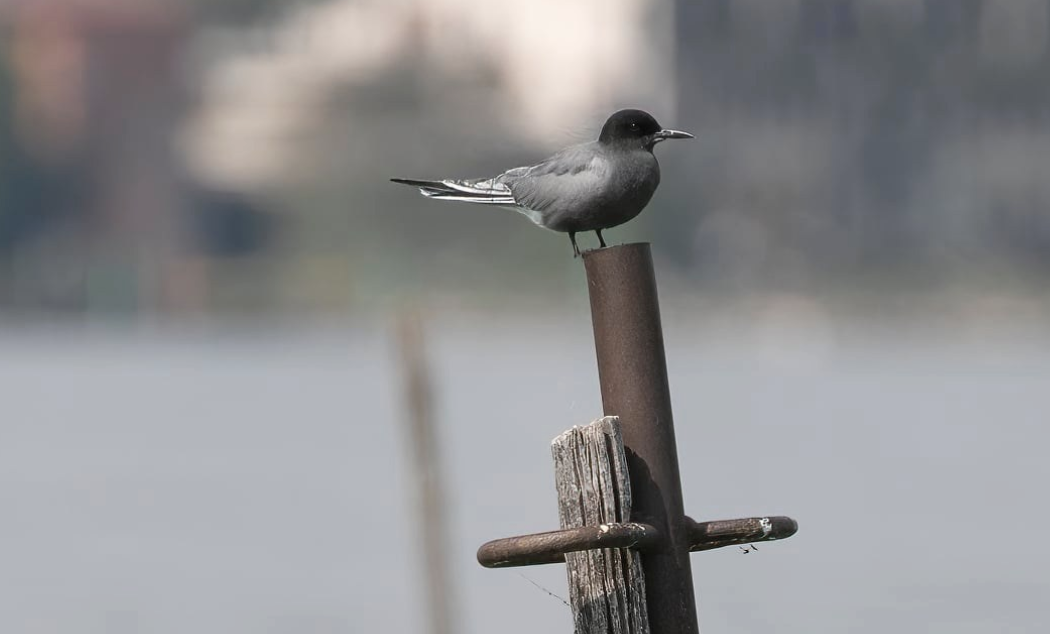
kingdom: Animalia
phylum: Chordata
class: Aves
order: Charadriiformes
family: Laridae
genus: Chlidonias
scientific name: Chlidonias niger
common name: Black tern
